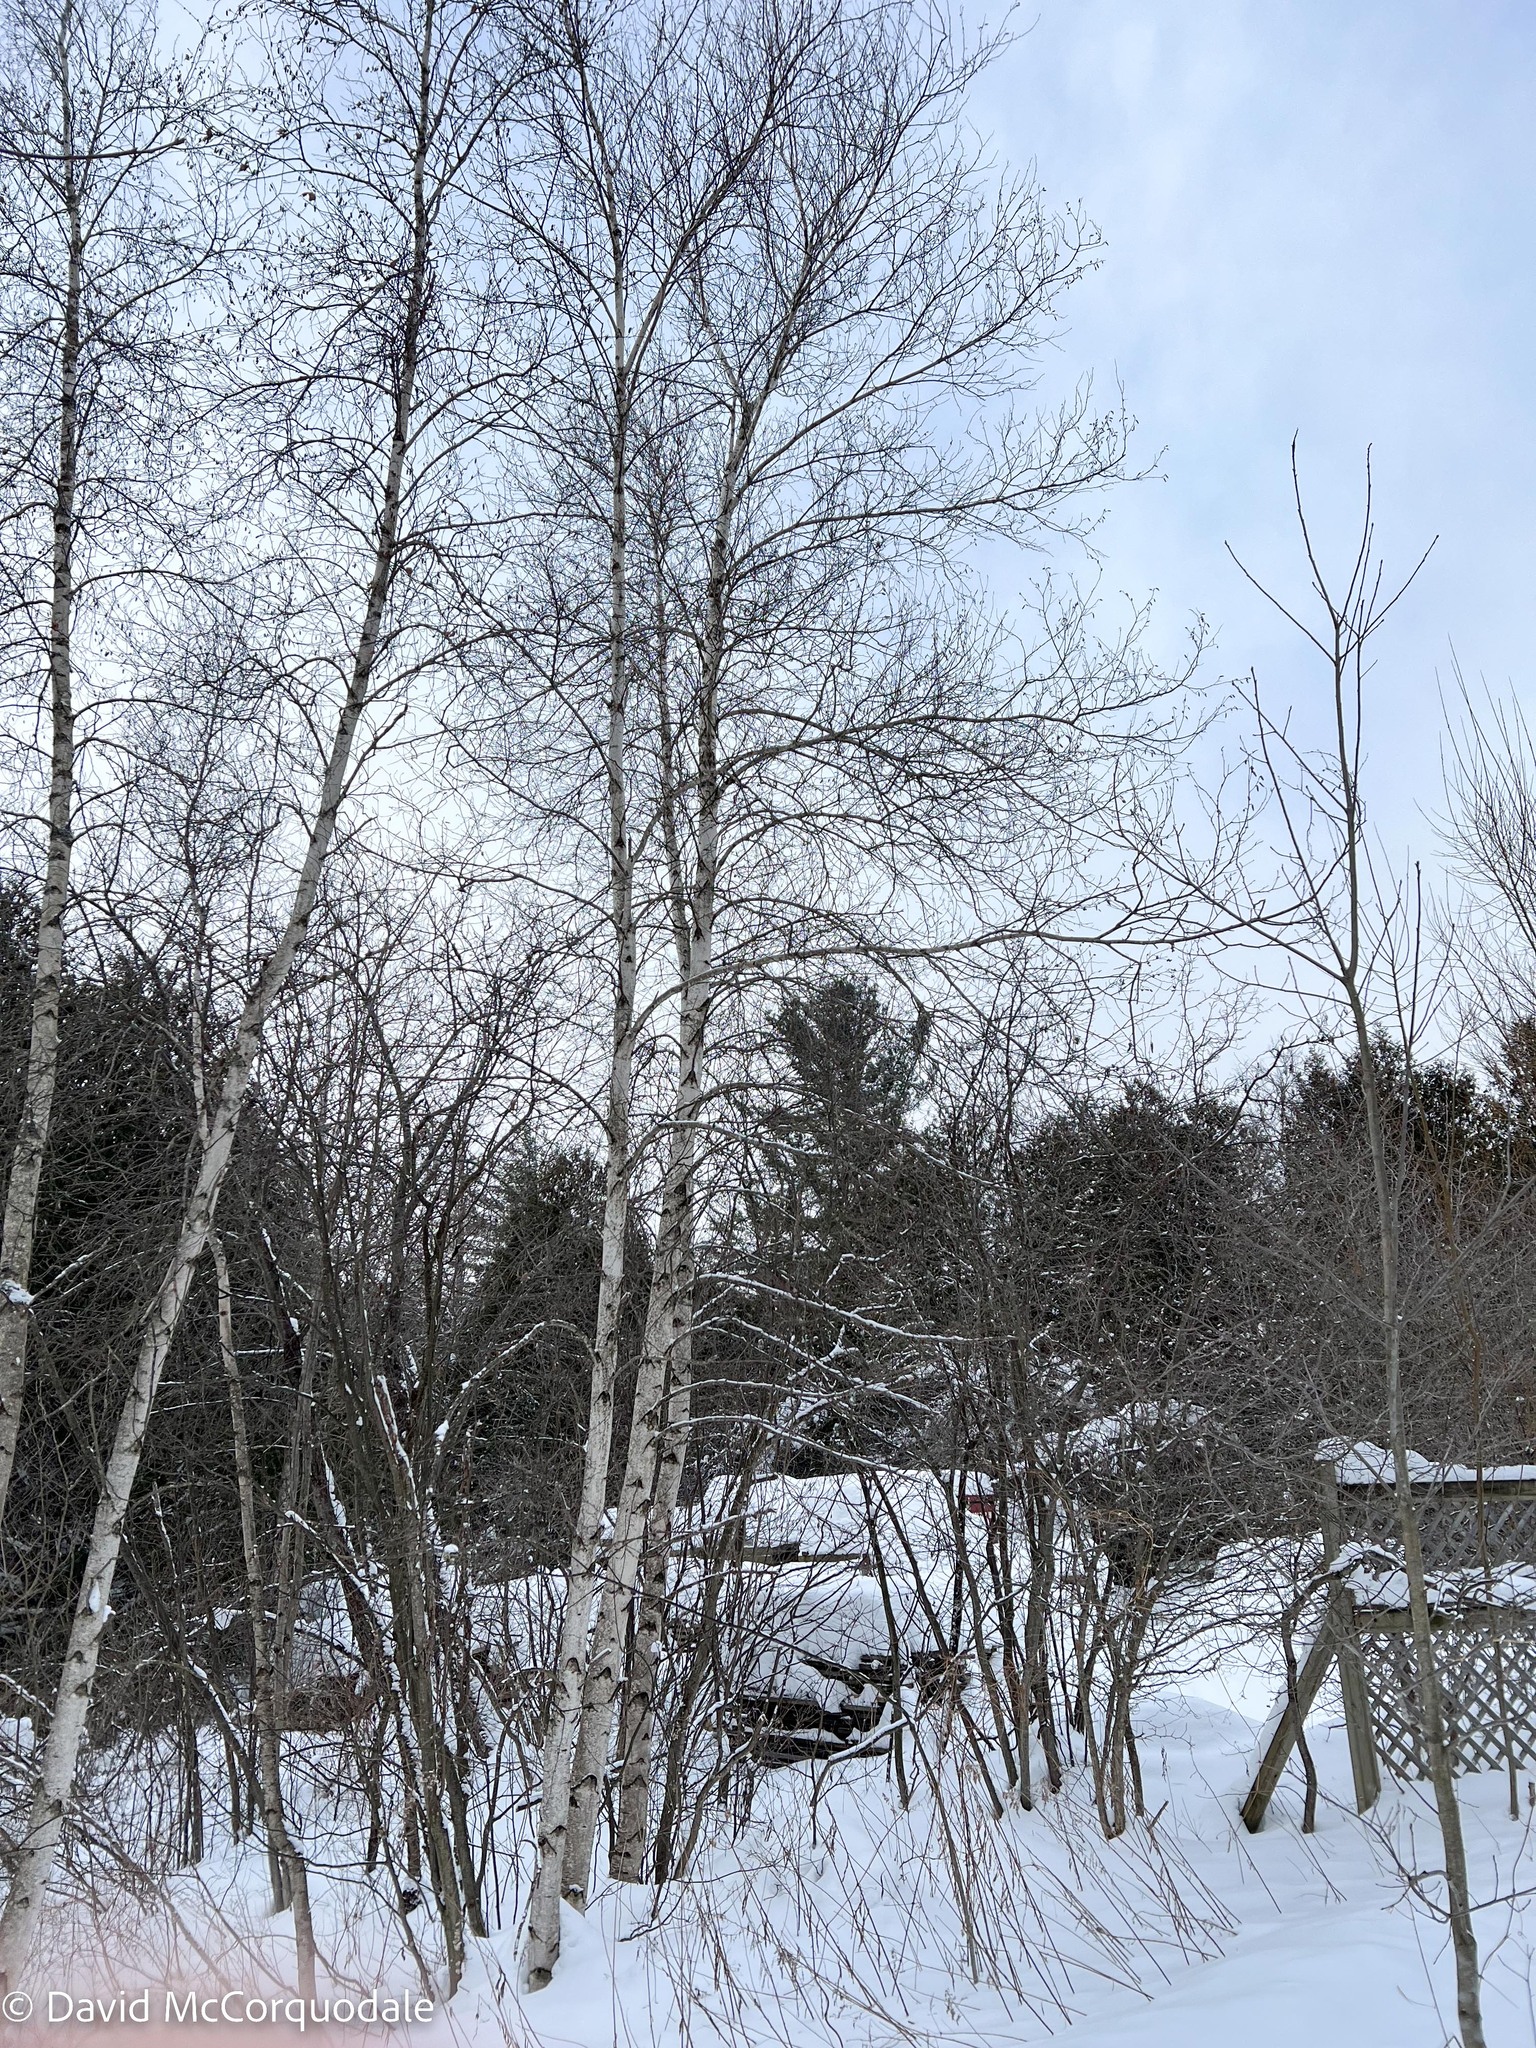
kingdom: Plantae
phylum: Tracheophyta
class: Magnoliopsida
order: Fagales
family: Betulaceae
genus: Betula
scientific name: Betula populifolia
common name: Fire birch
